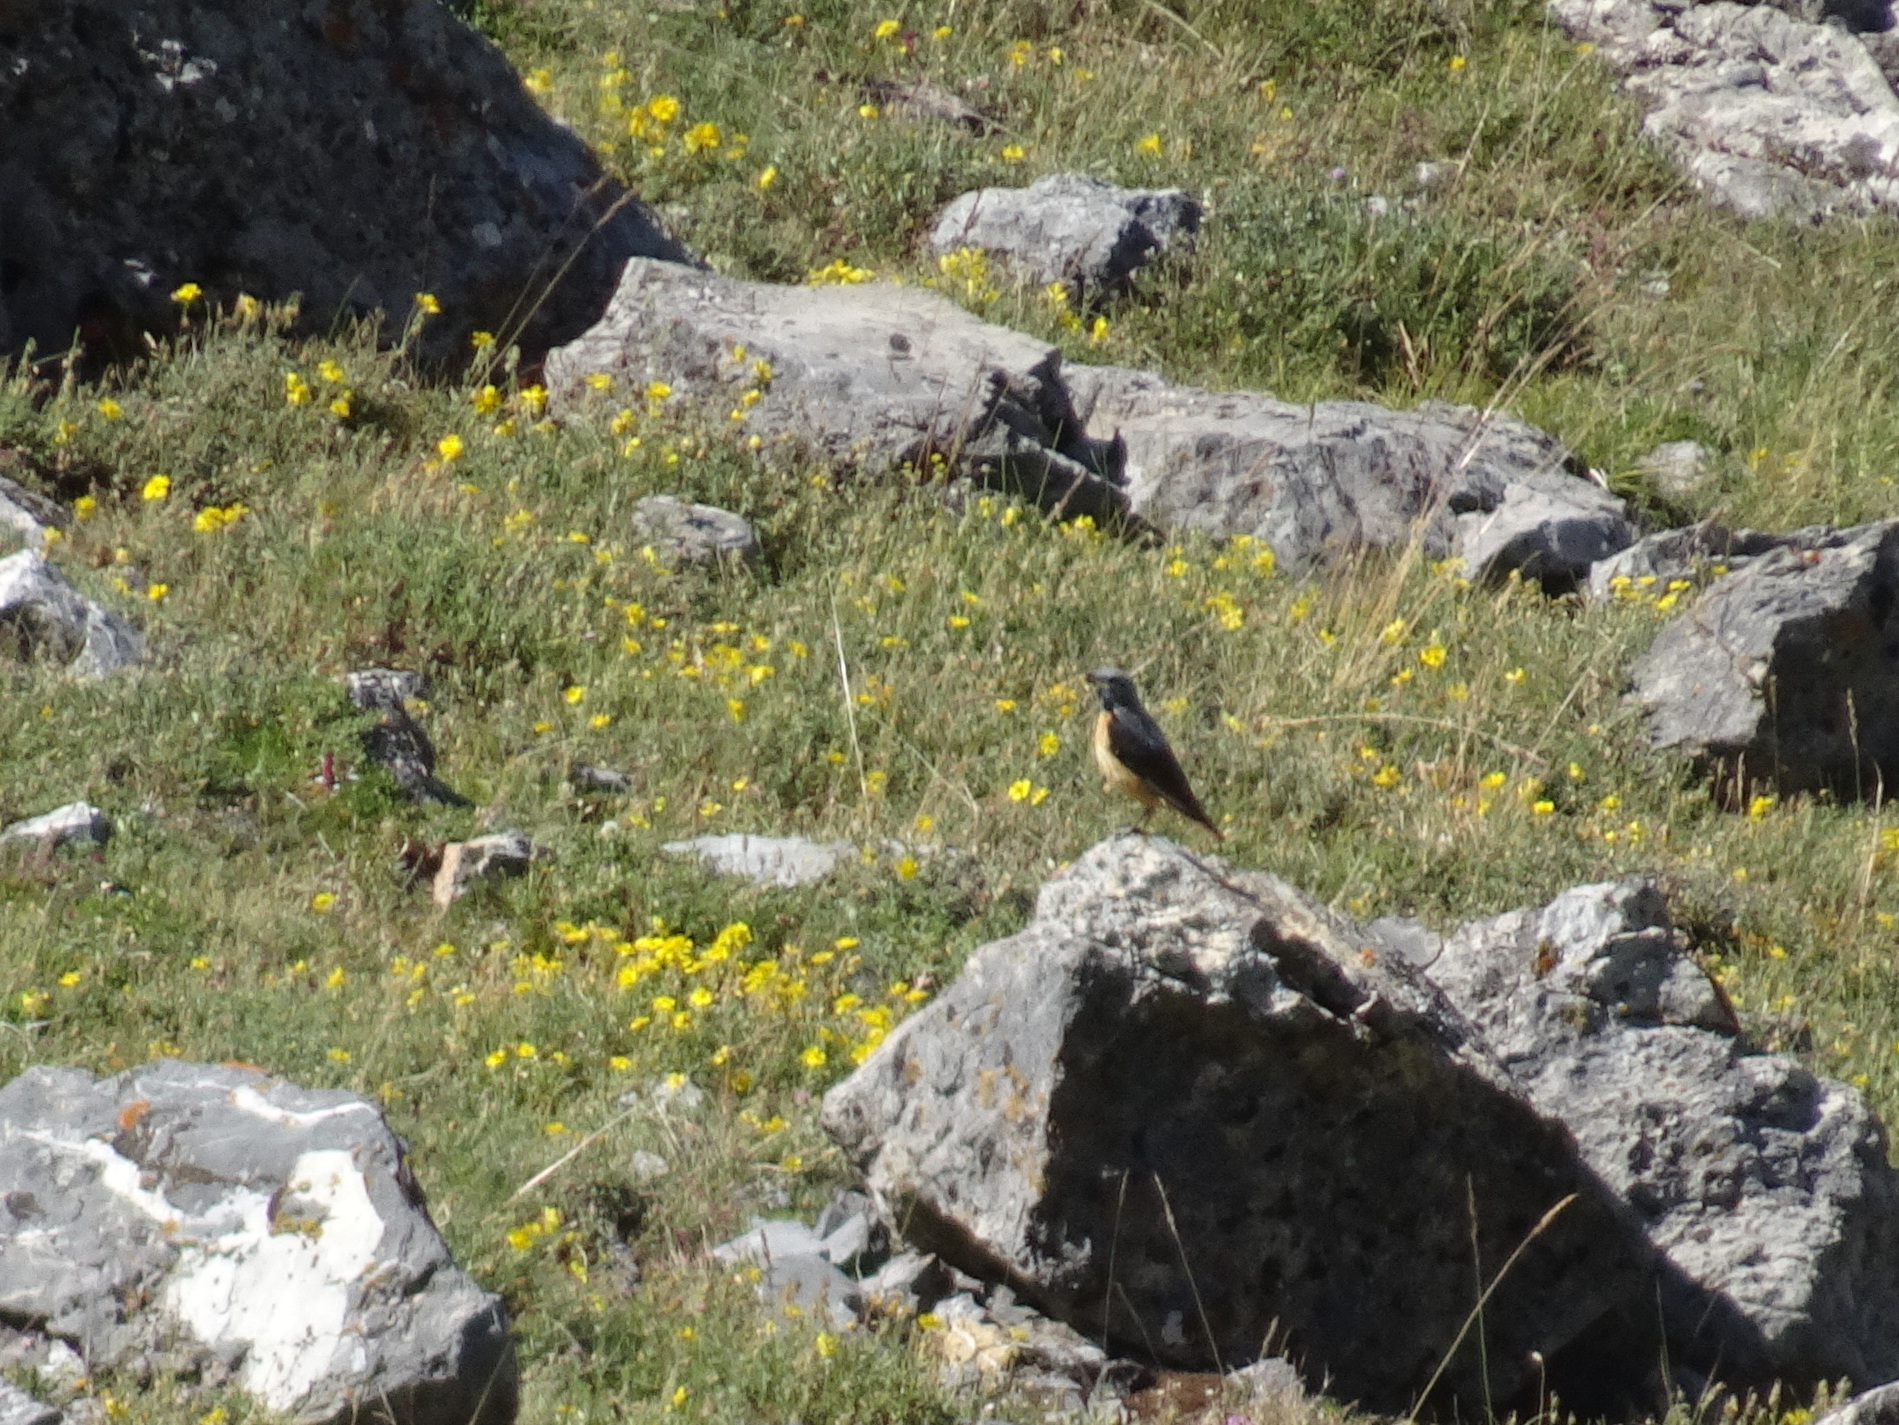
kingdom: Animalia
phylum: Chordata
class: Aves
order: Passeriformes
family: Muscicapidae
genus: Monticola
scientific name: Monticola saxatilis
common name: Rufous-tailed rock thrush
